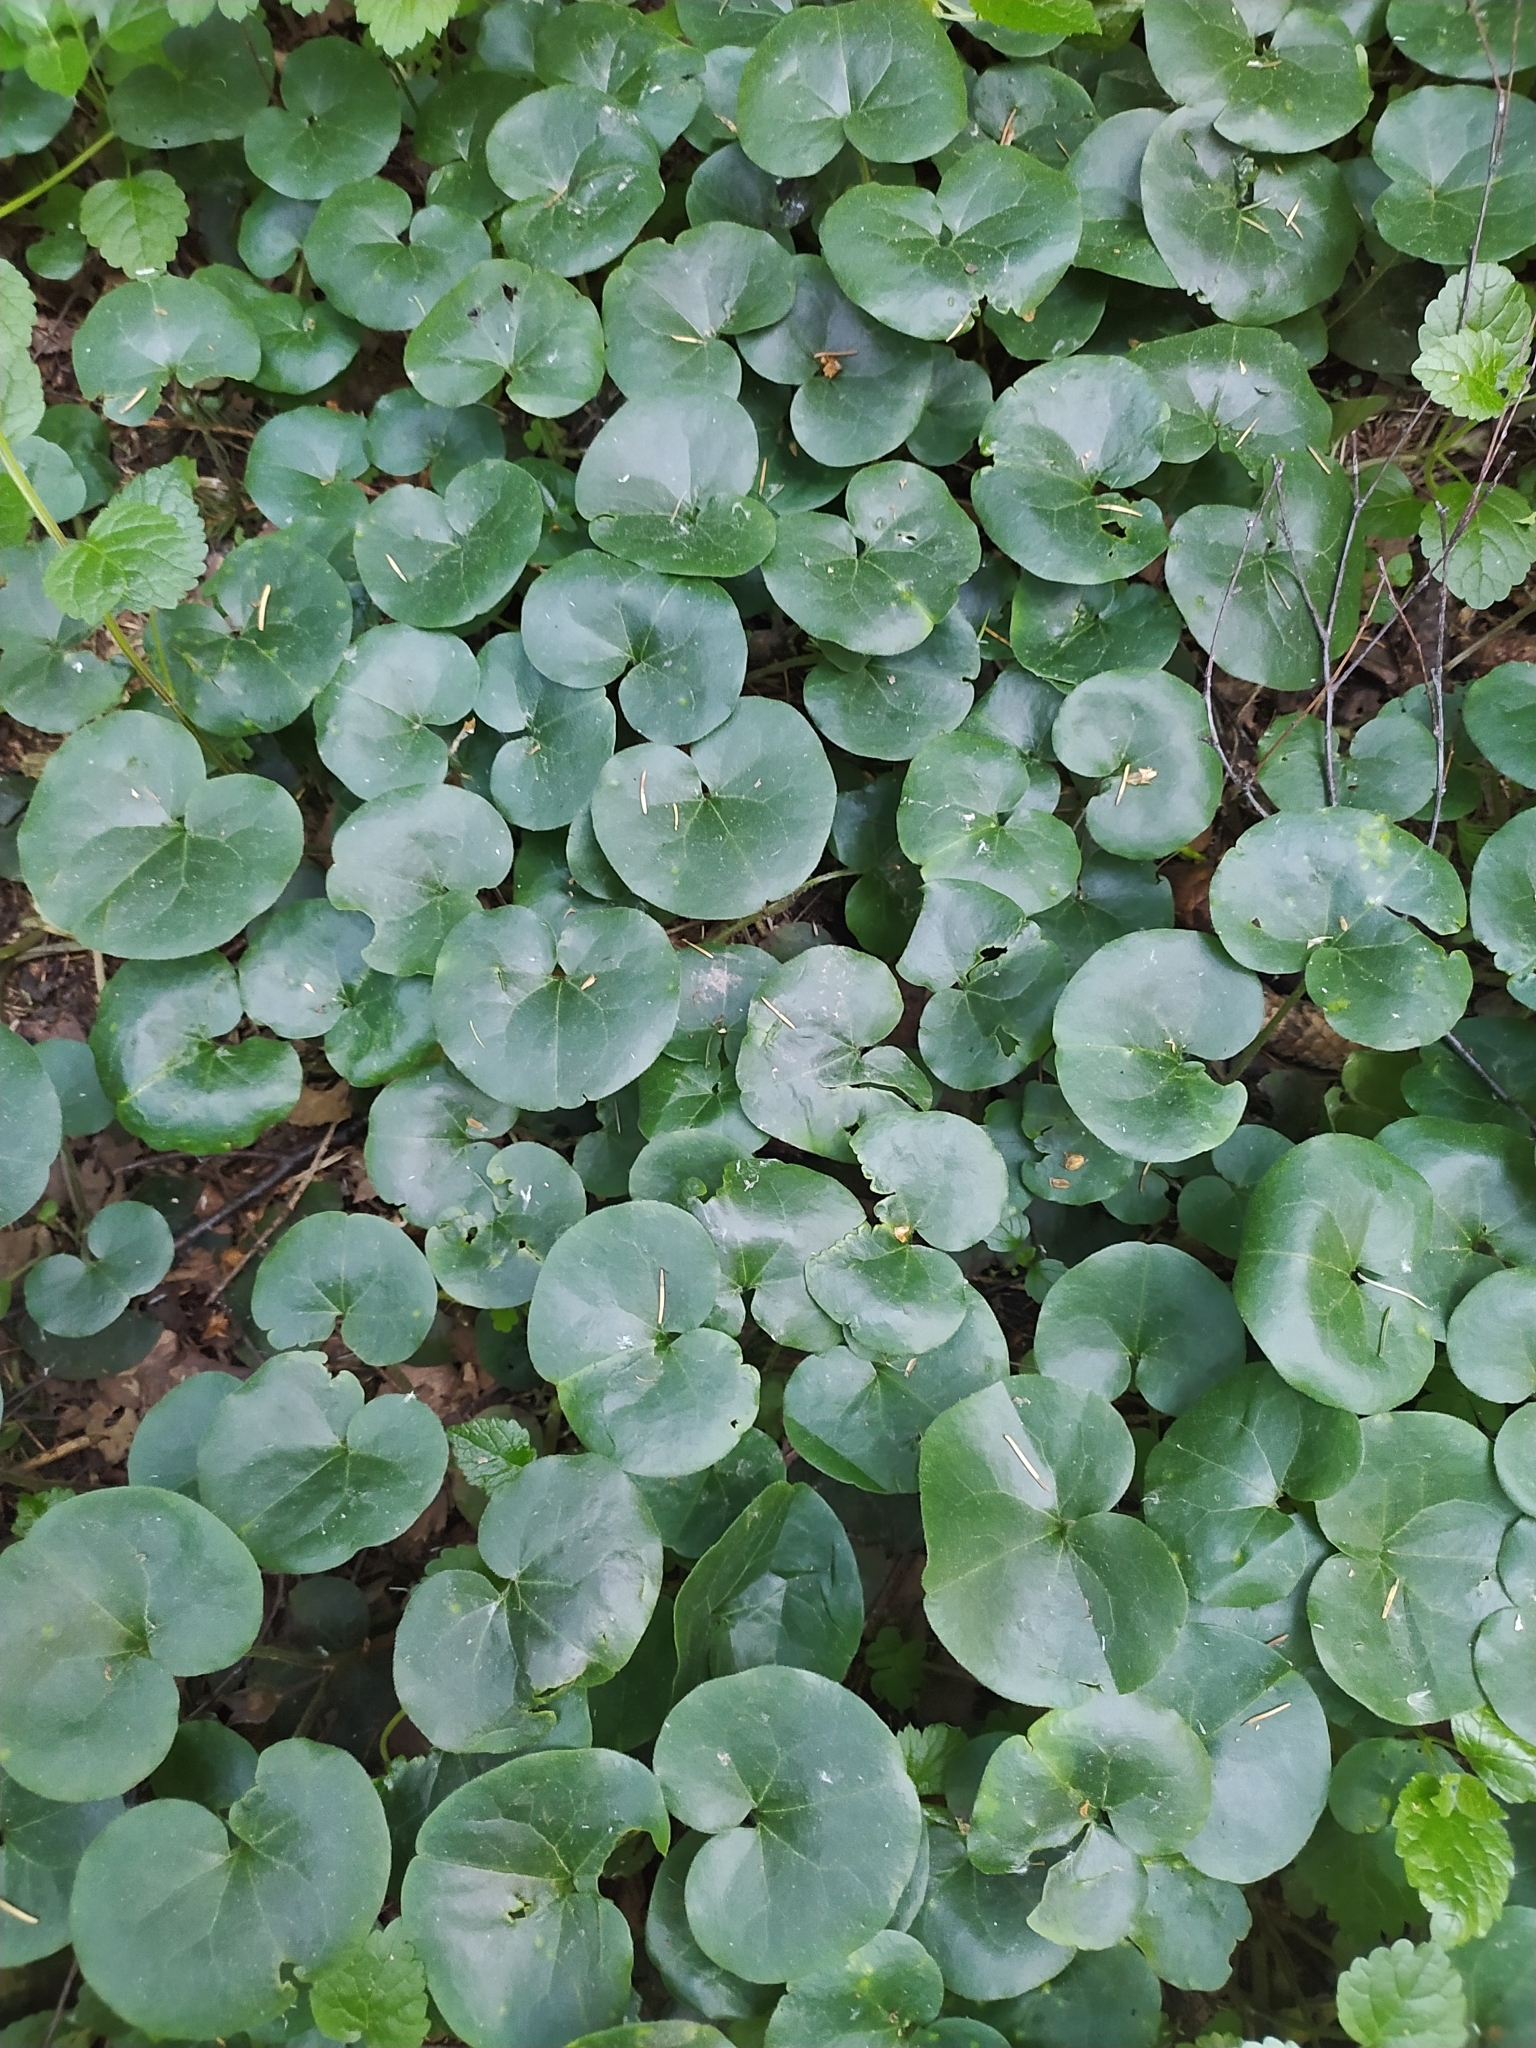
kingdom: Plantae
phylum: Tracheophyta
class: Magnoliopsida
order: Piperales
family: Aristolochiaceae
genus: Asarum
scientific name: Asarum europaeum
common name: Asarabacca
